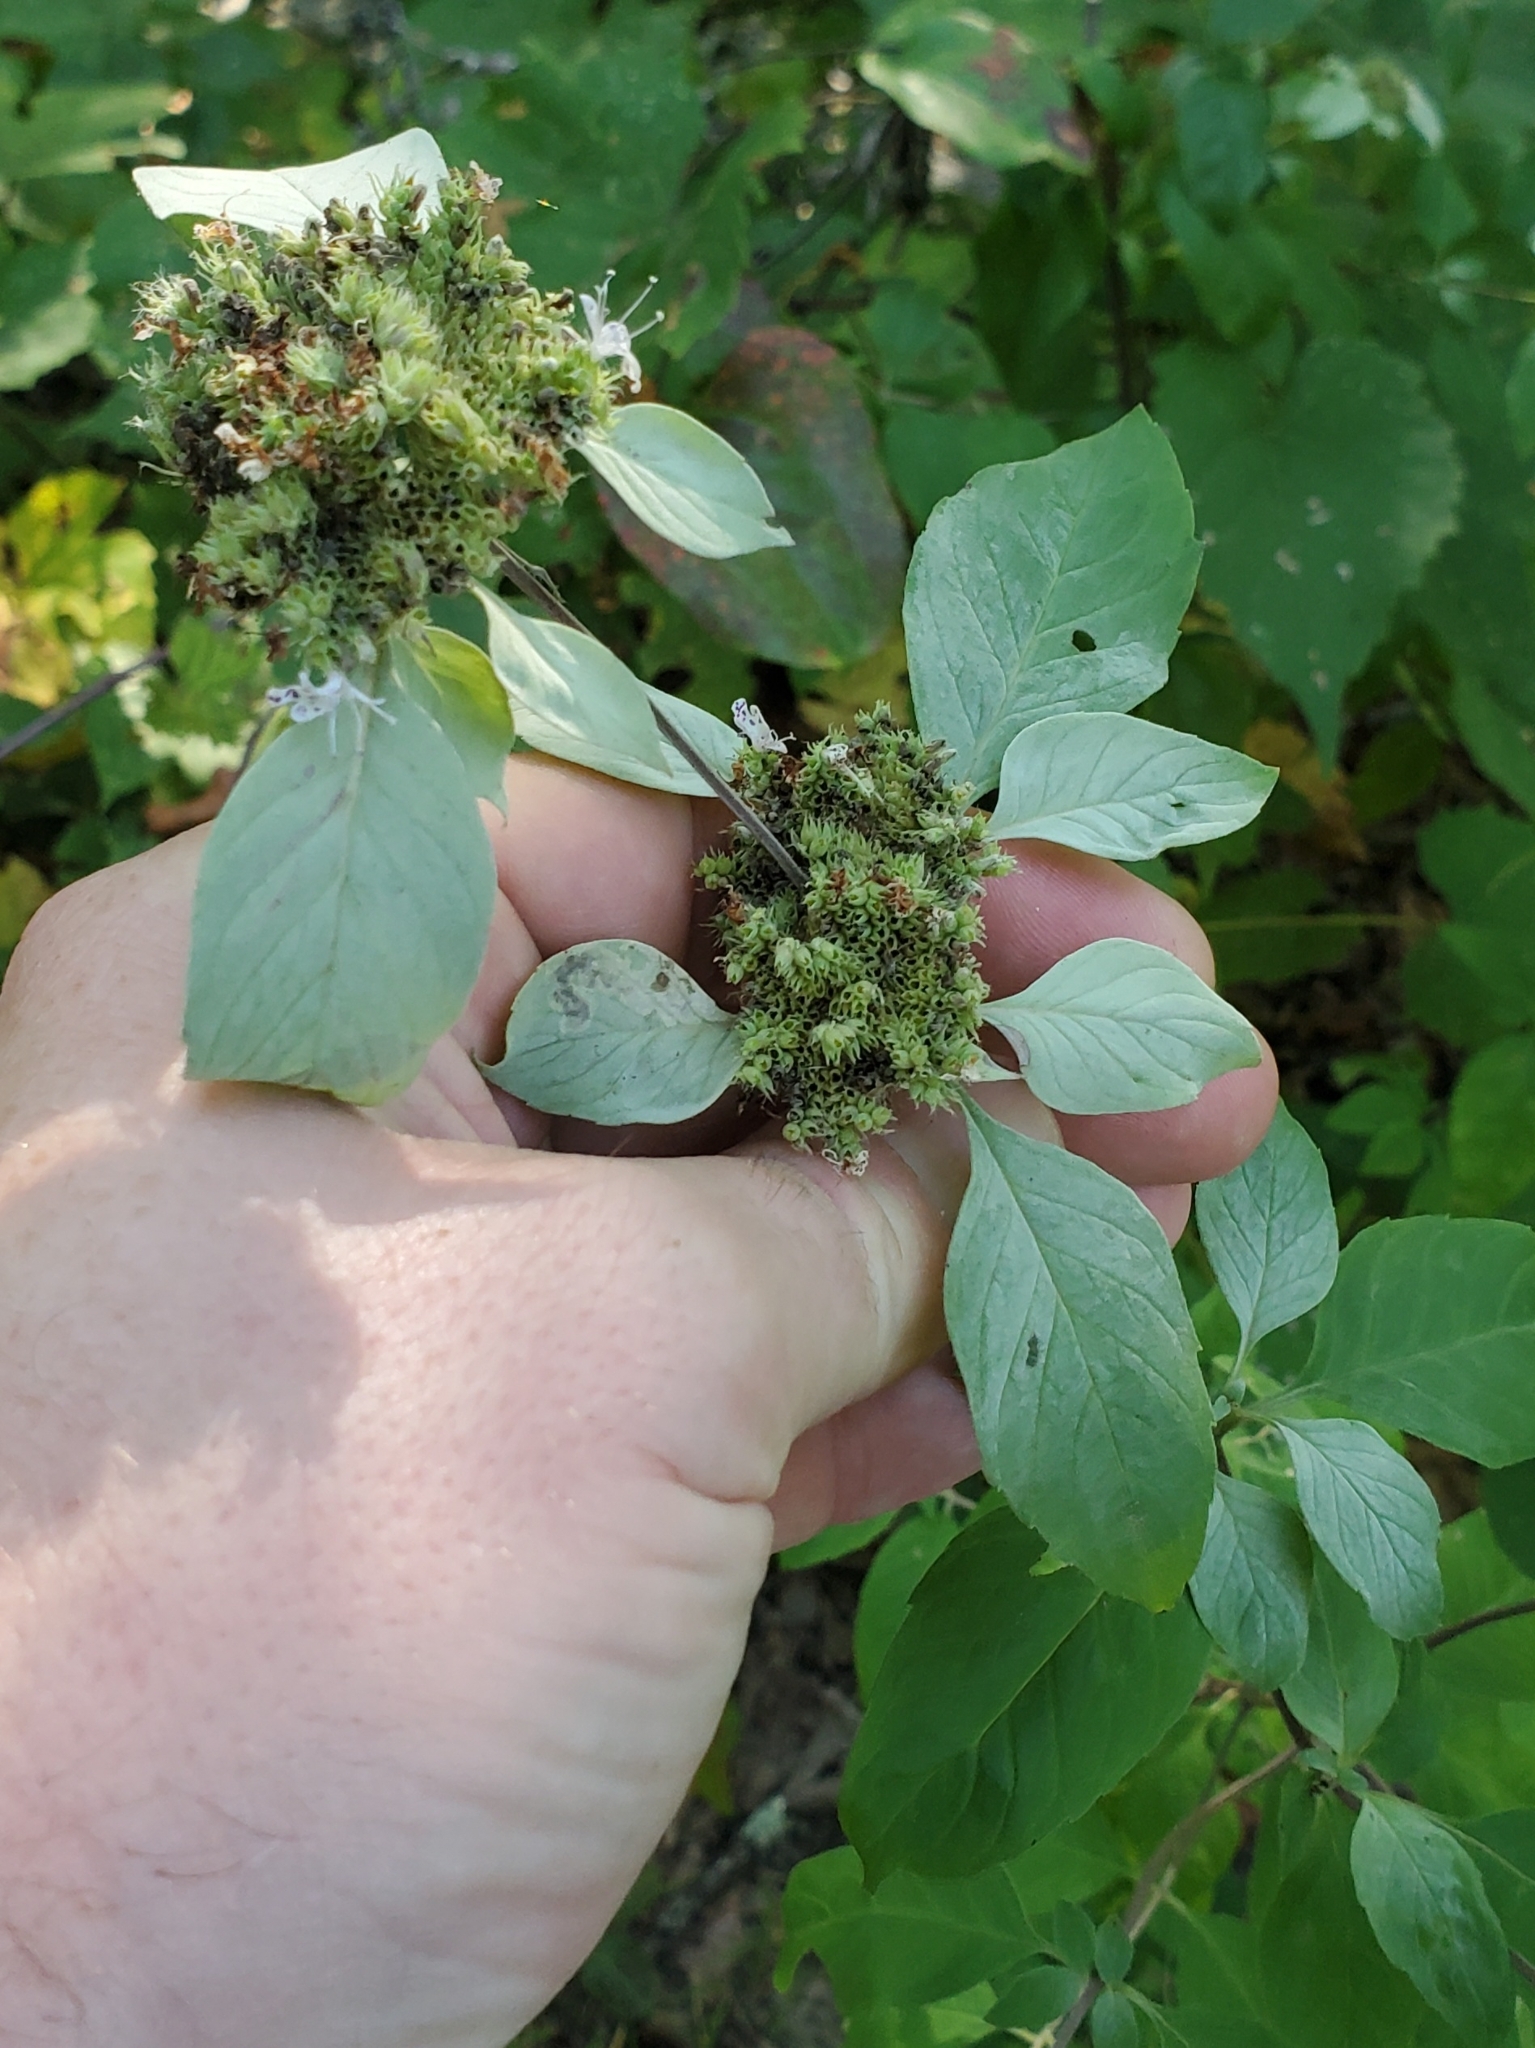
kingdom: Plantae
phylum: Tracheophyta
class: Magnoliopsida
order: Lamiales
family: Lamiaceae
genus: Pycnanthemum
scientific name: Pycnanthemum incanum
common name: Hoary mountain-mint
